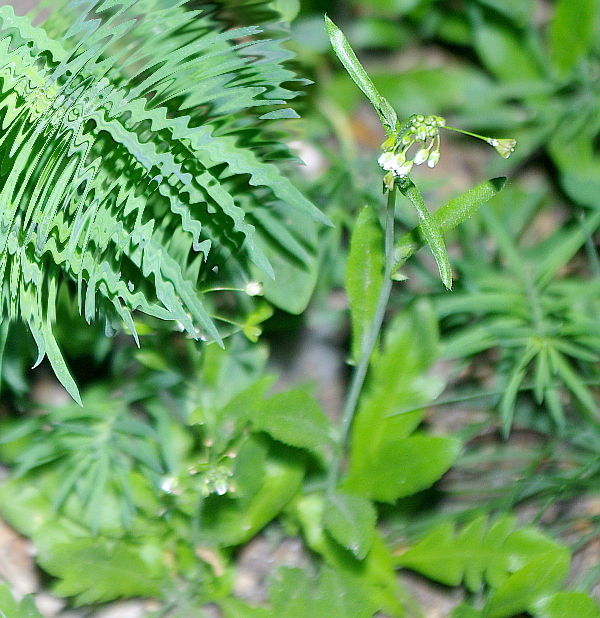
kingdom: Plantae
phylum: Tracheophyta
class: Magnoliopsida
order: Brassicales
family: Brassicaceae
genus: Capsella
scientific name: Capsella bursa-pastoris
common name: Shepherd's purse
